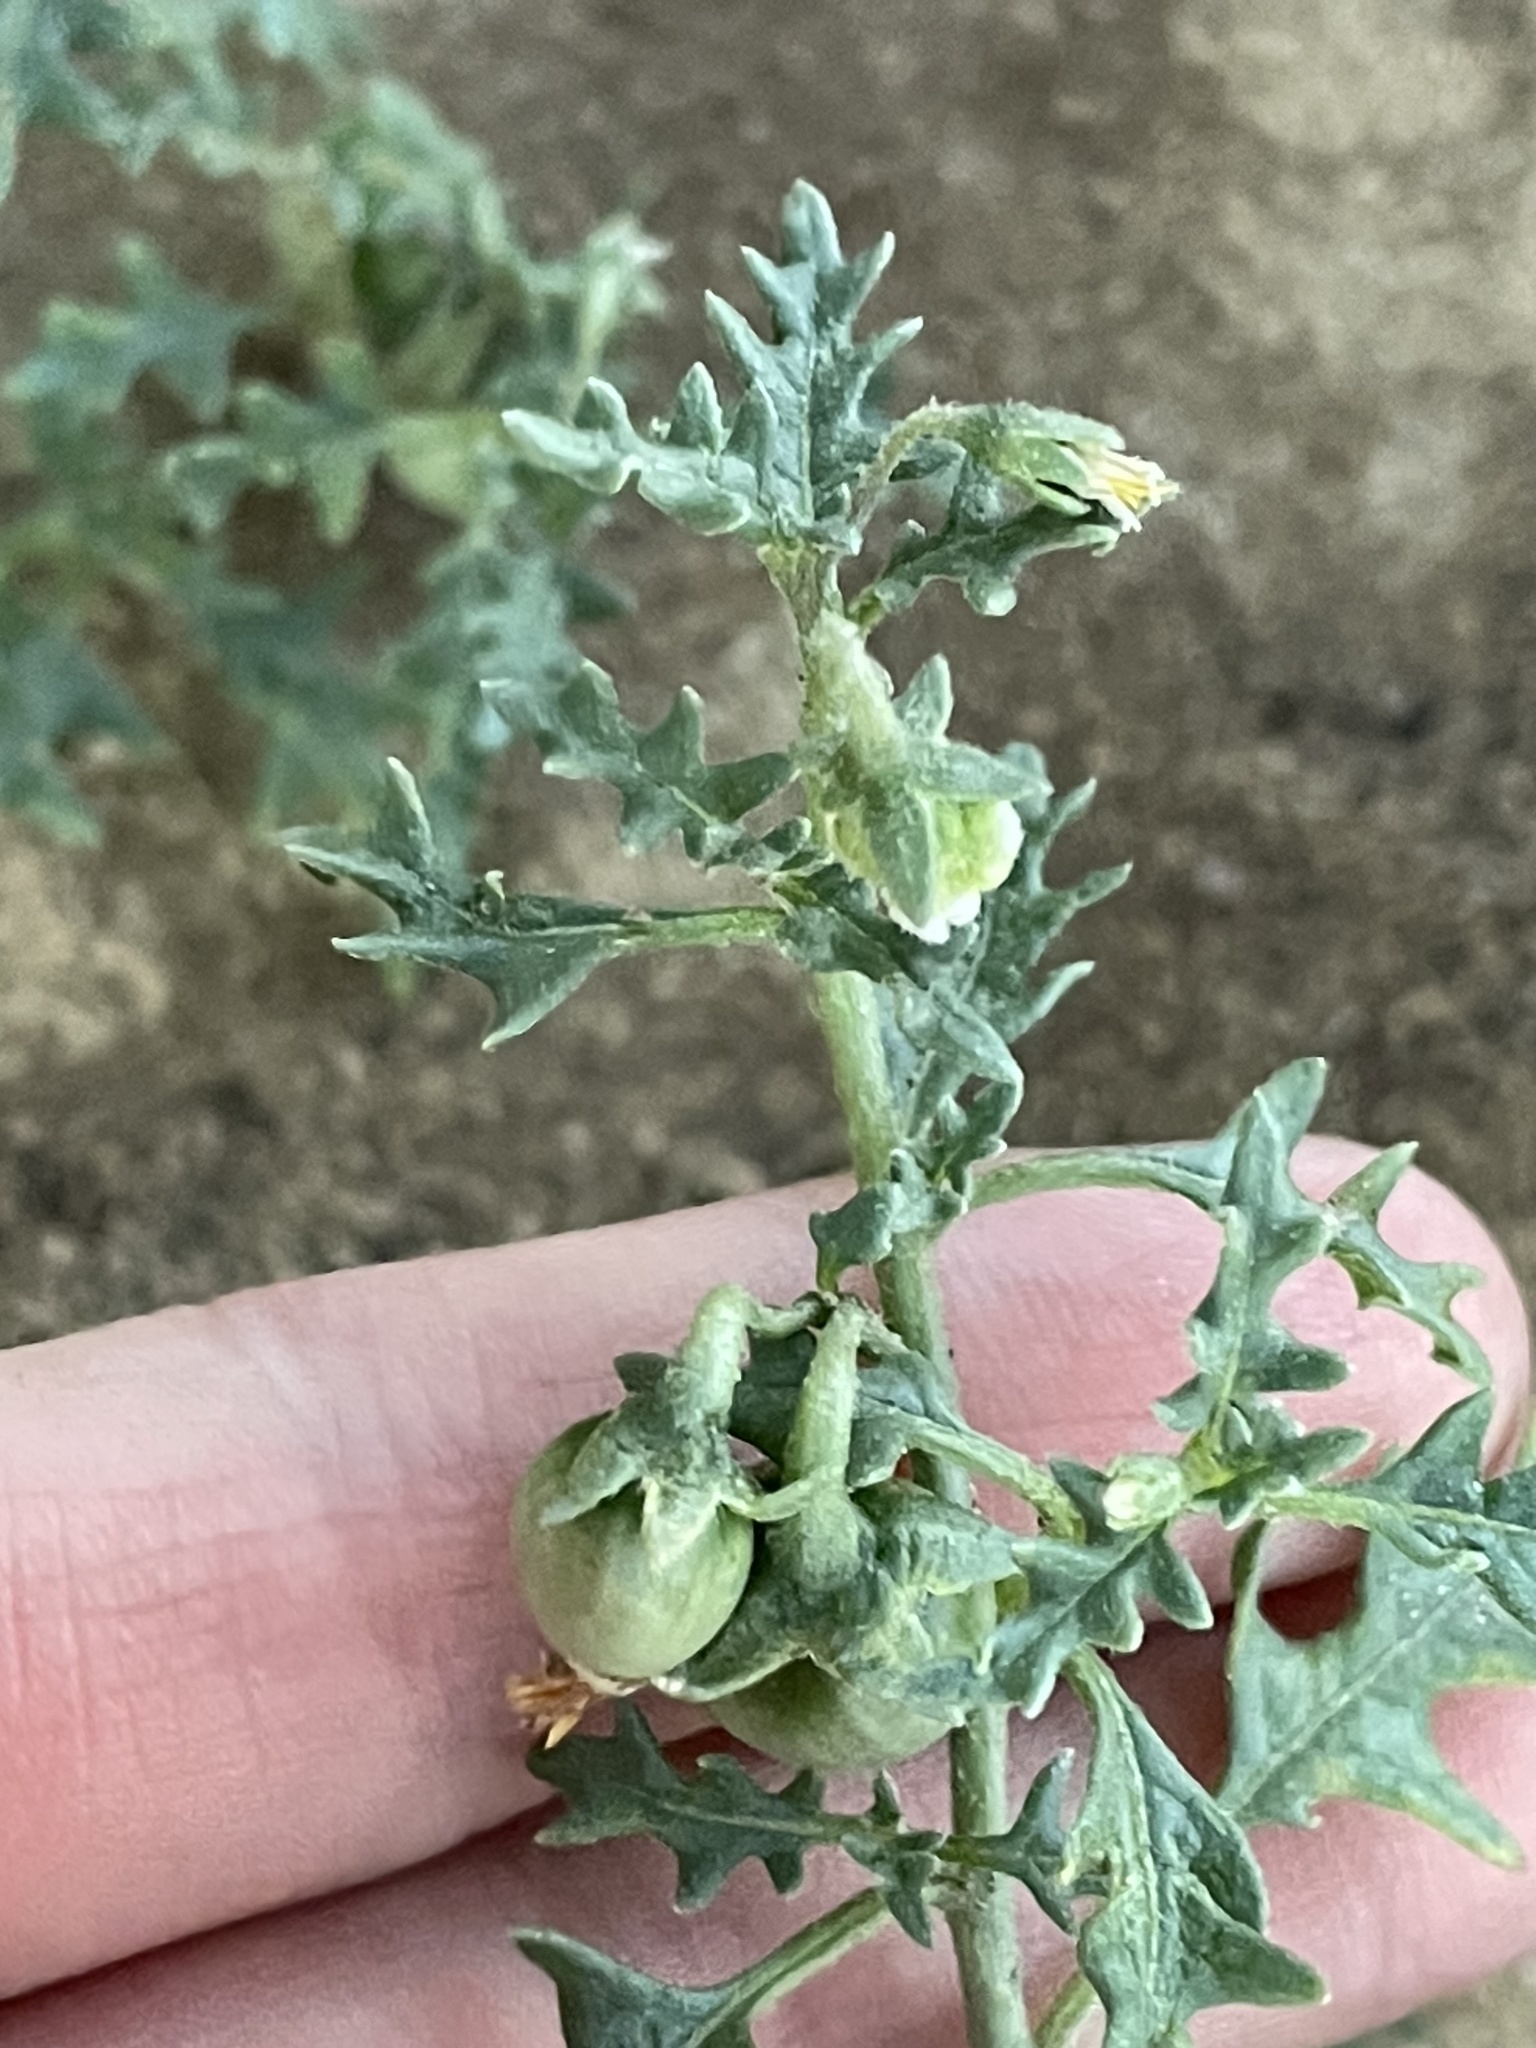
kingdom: Plantae
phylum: Tracheophyta
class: Magnoliopsida
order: Solanales
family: Solanaceae
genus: Solanum
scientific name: Solanum triflorum
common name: Small nightshade
